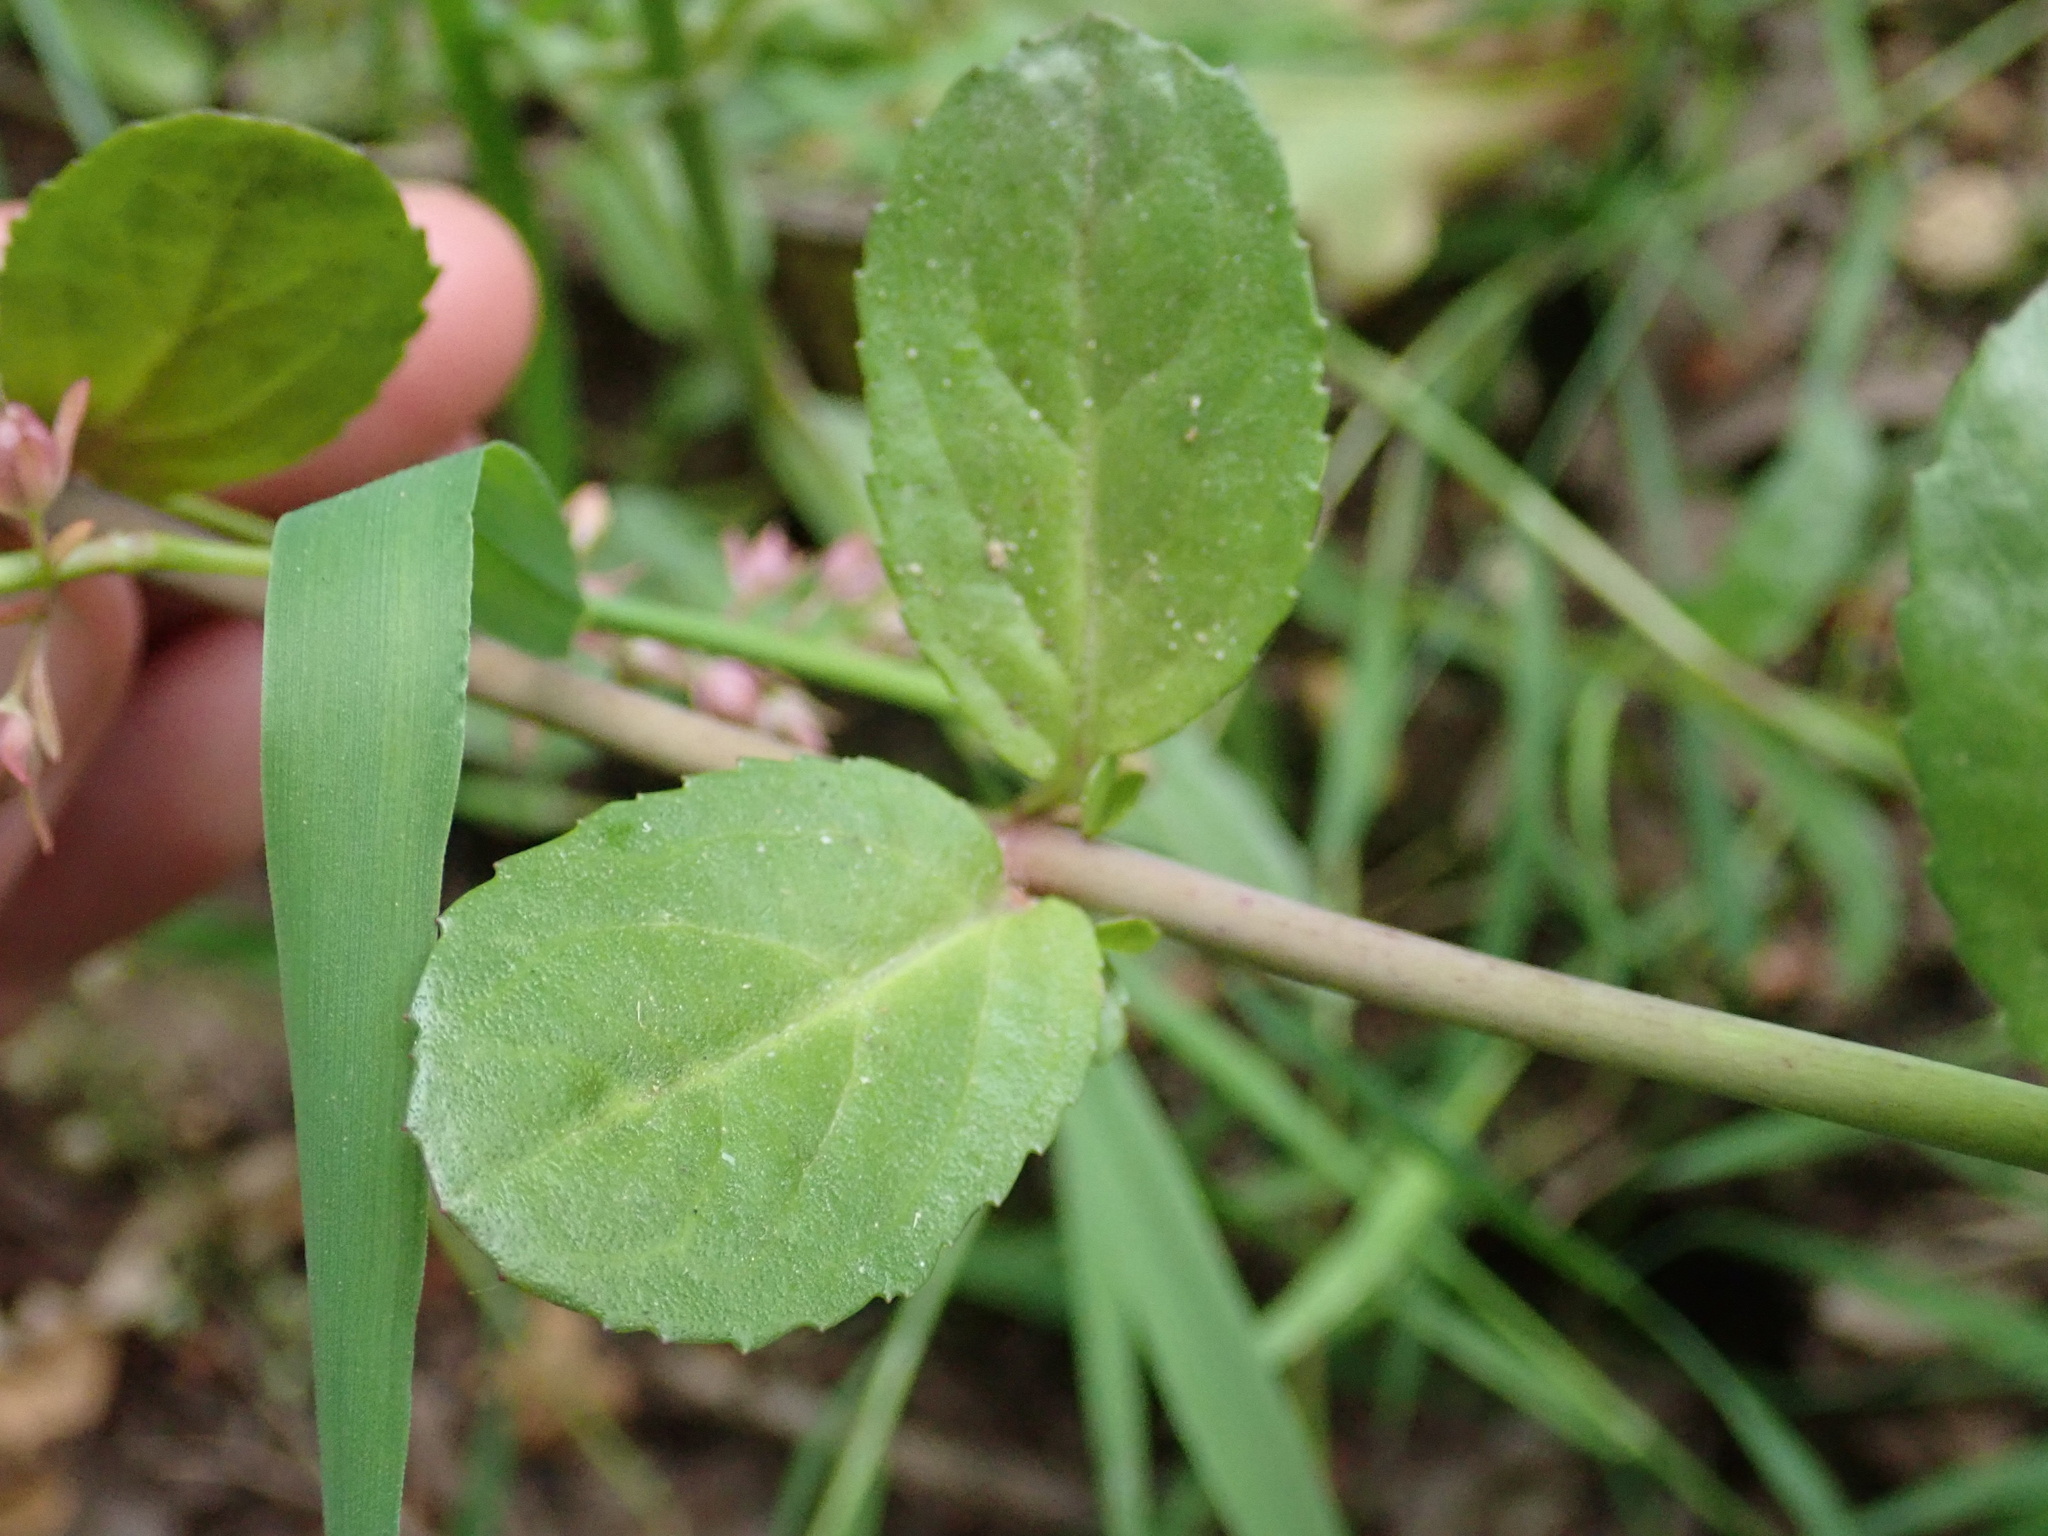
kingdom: Plantae
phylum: Tracheophyta
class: Magnoliopsida
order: Lamiales
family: Plantaginaceae
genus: Veronica
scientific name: Veronica beccabunga
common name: Brooklime
